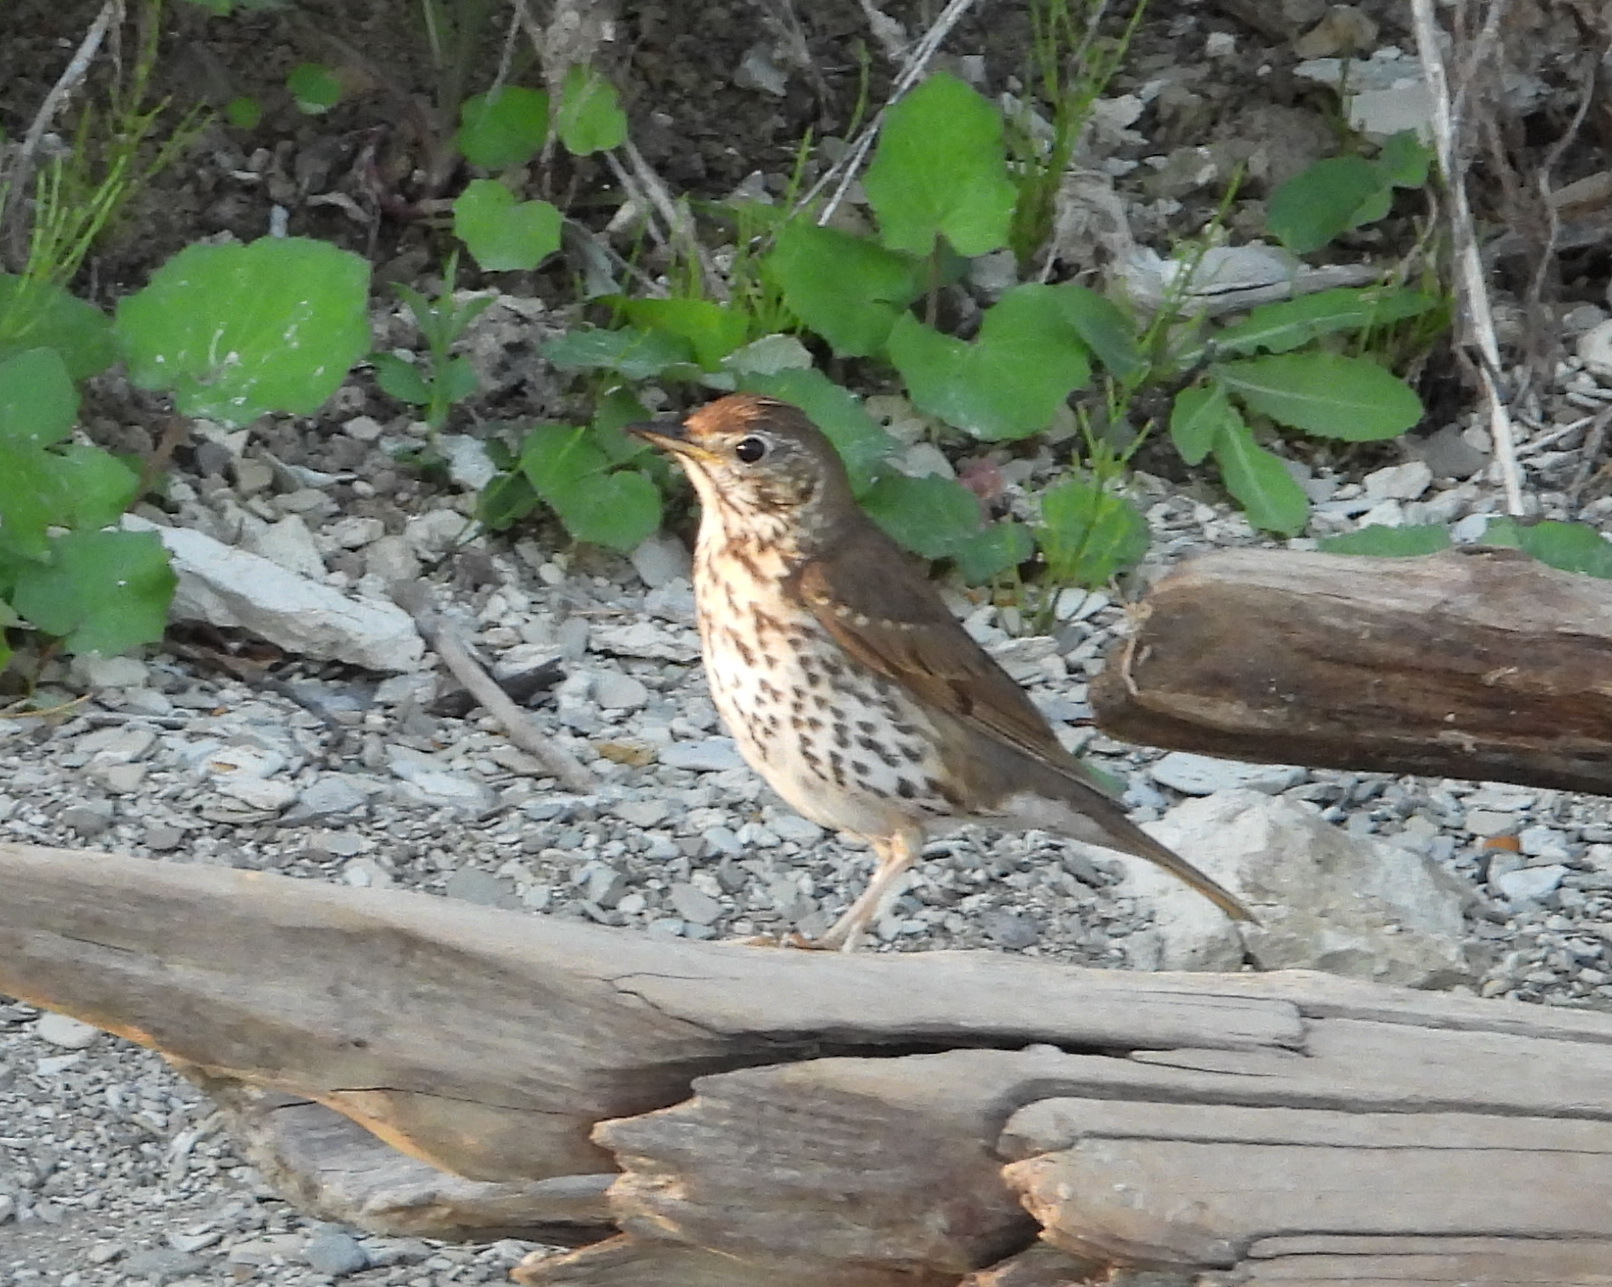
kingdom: Animalia
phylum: Chordata
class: Aves
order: Passeriformes
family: Turdidae
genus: Turdus
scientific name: Turdus philomelos
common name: Song thrush
